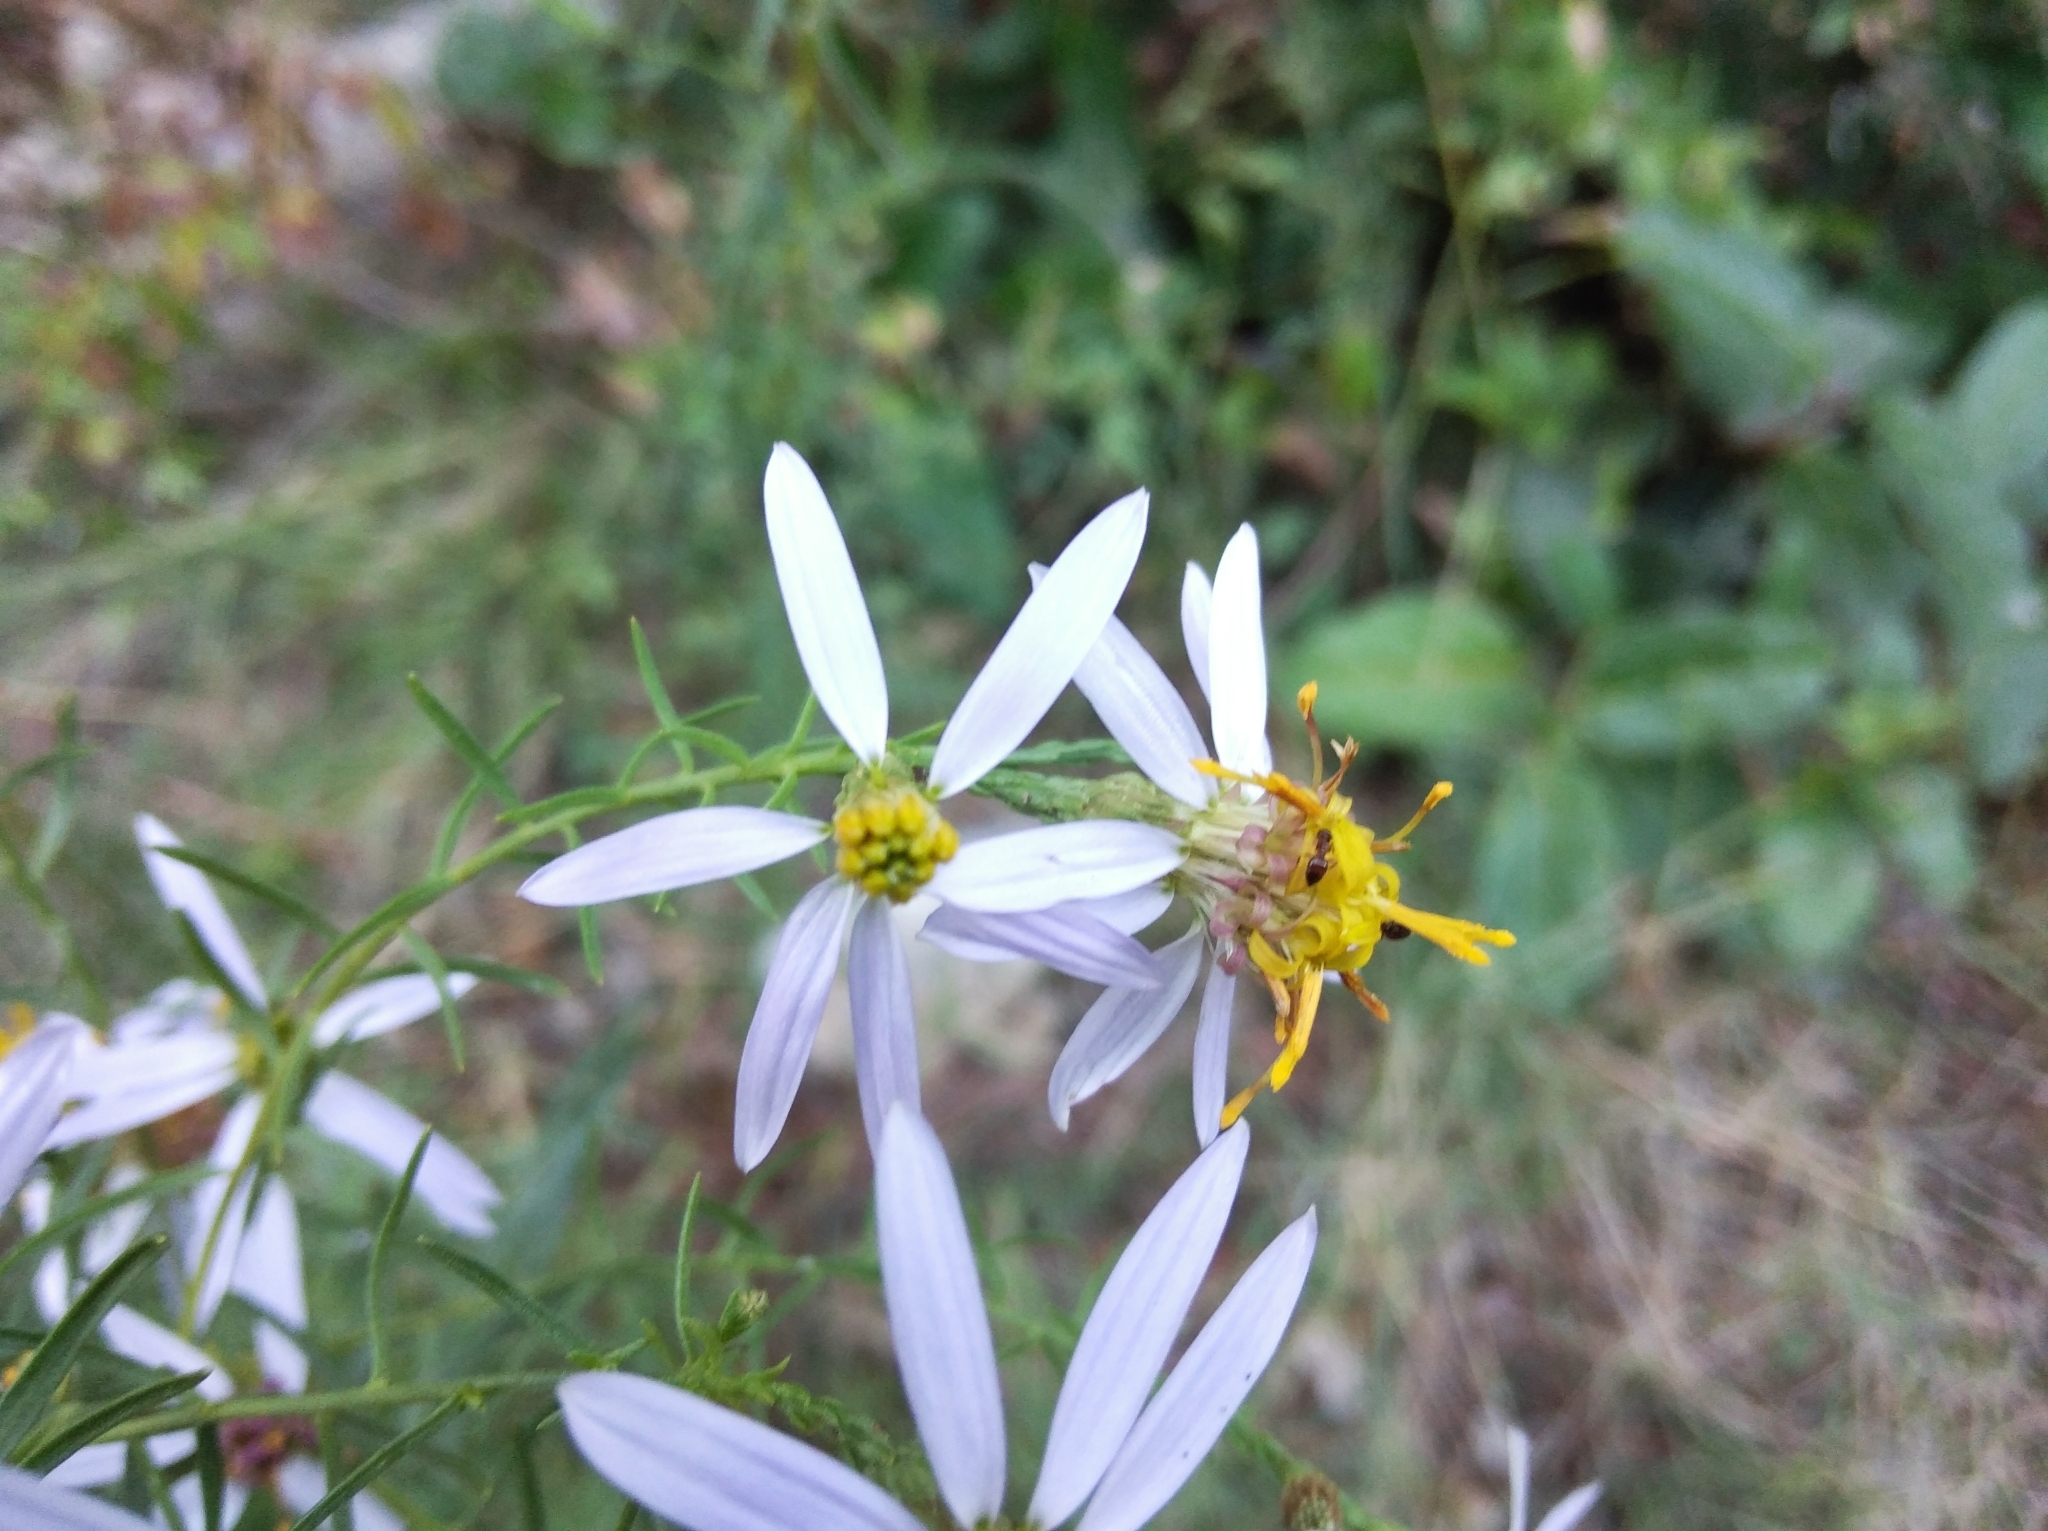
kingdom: Plantae
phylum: Tracheophyta
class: Magnoliopsida
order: Asterales
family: Asteraceae
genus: Galatella
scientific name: Galatella sedifolia
